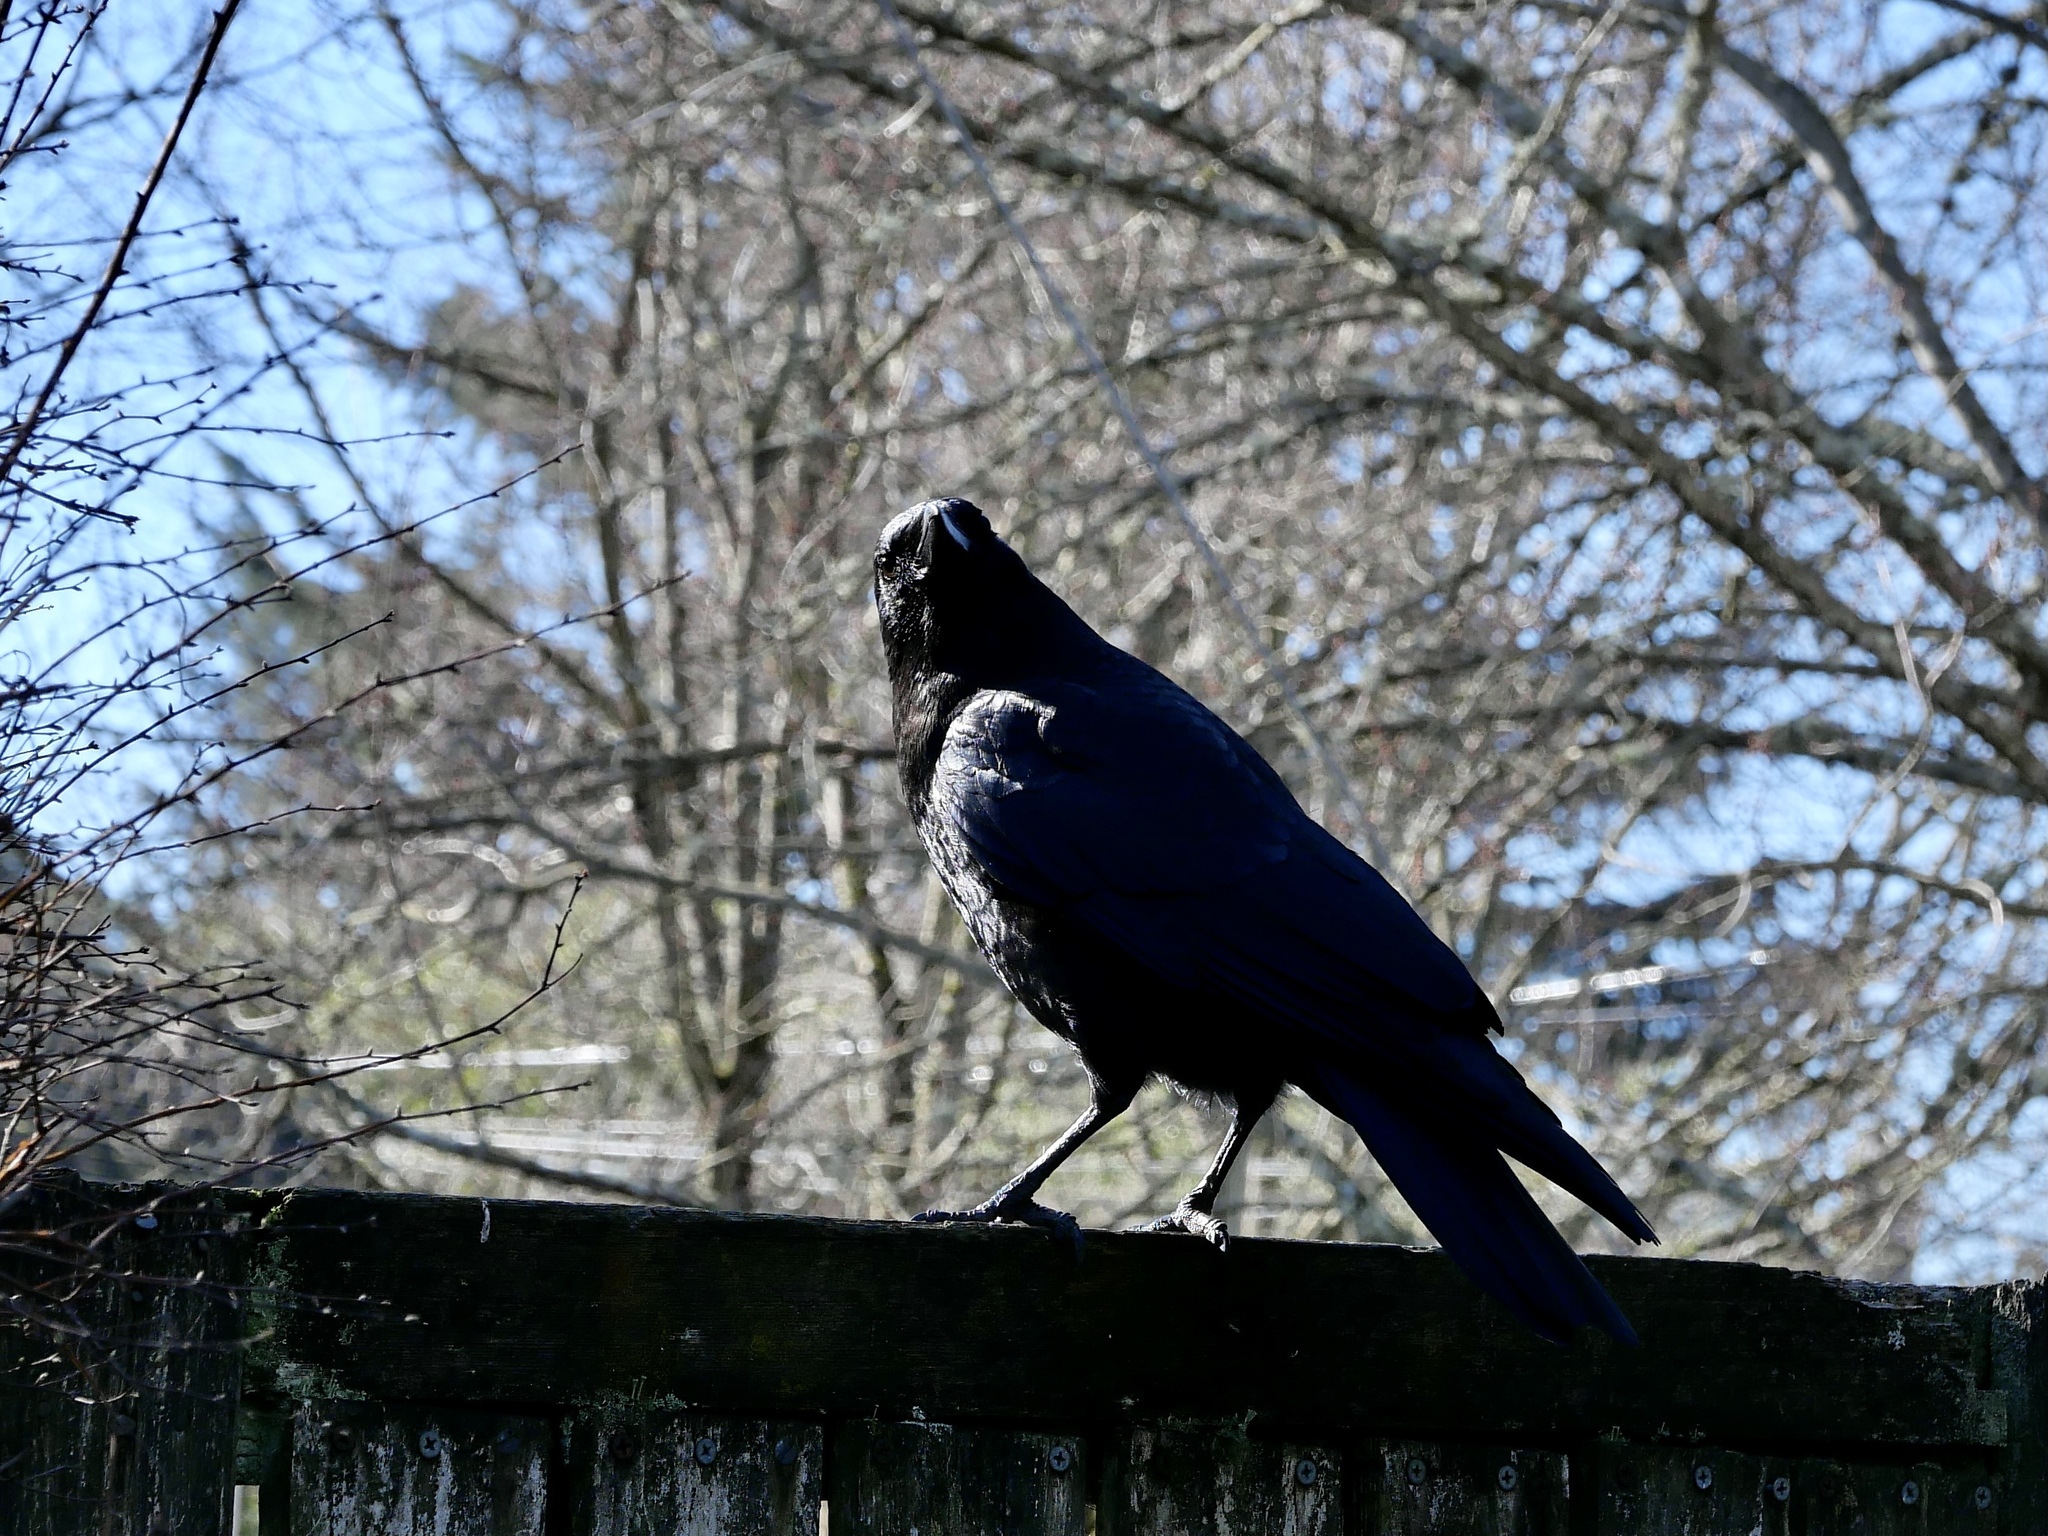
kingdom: Animalia
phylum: Chordata
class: Aves
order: Passeriformes
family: Corvidae
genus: Corvus
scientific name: Corvus brachyrhynchos
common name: American crow
